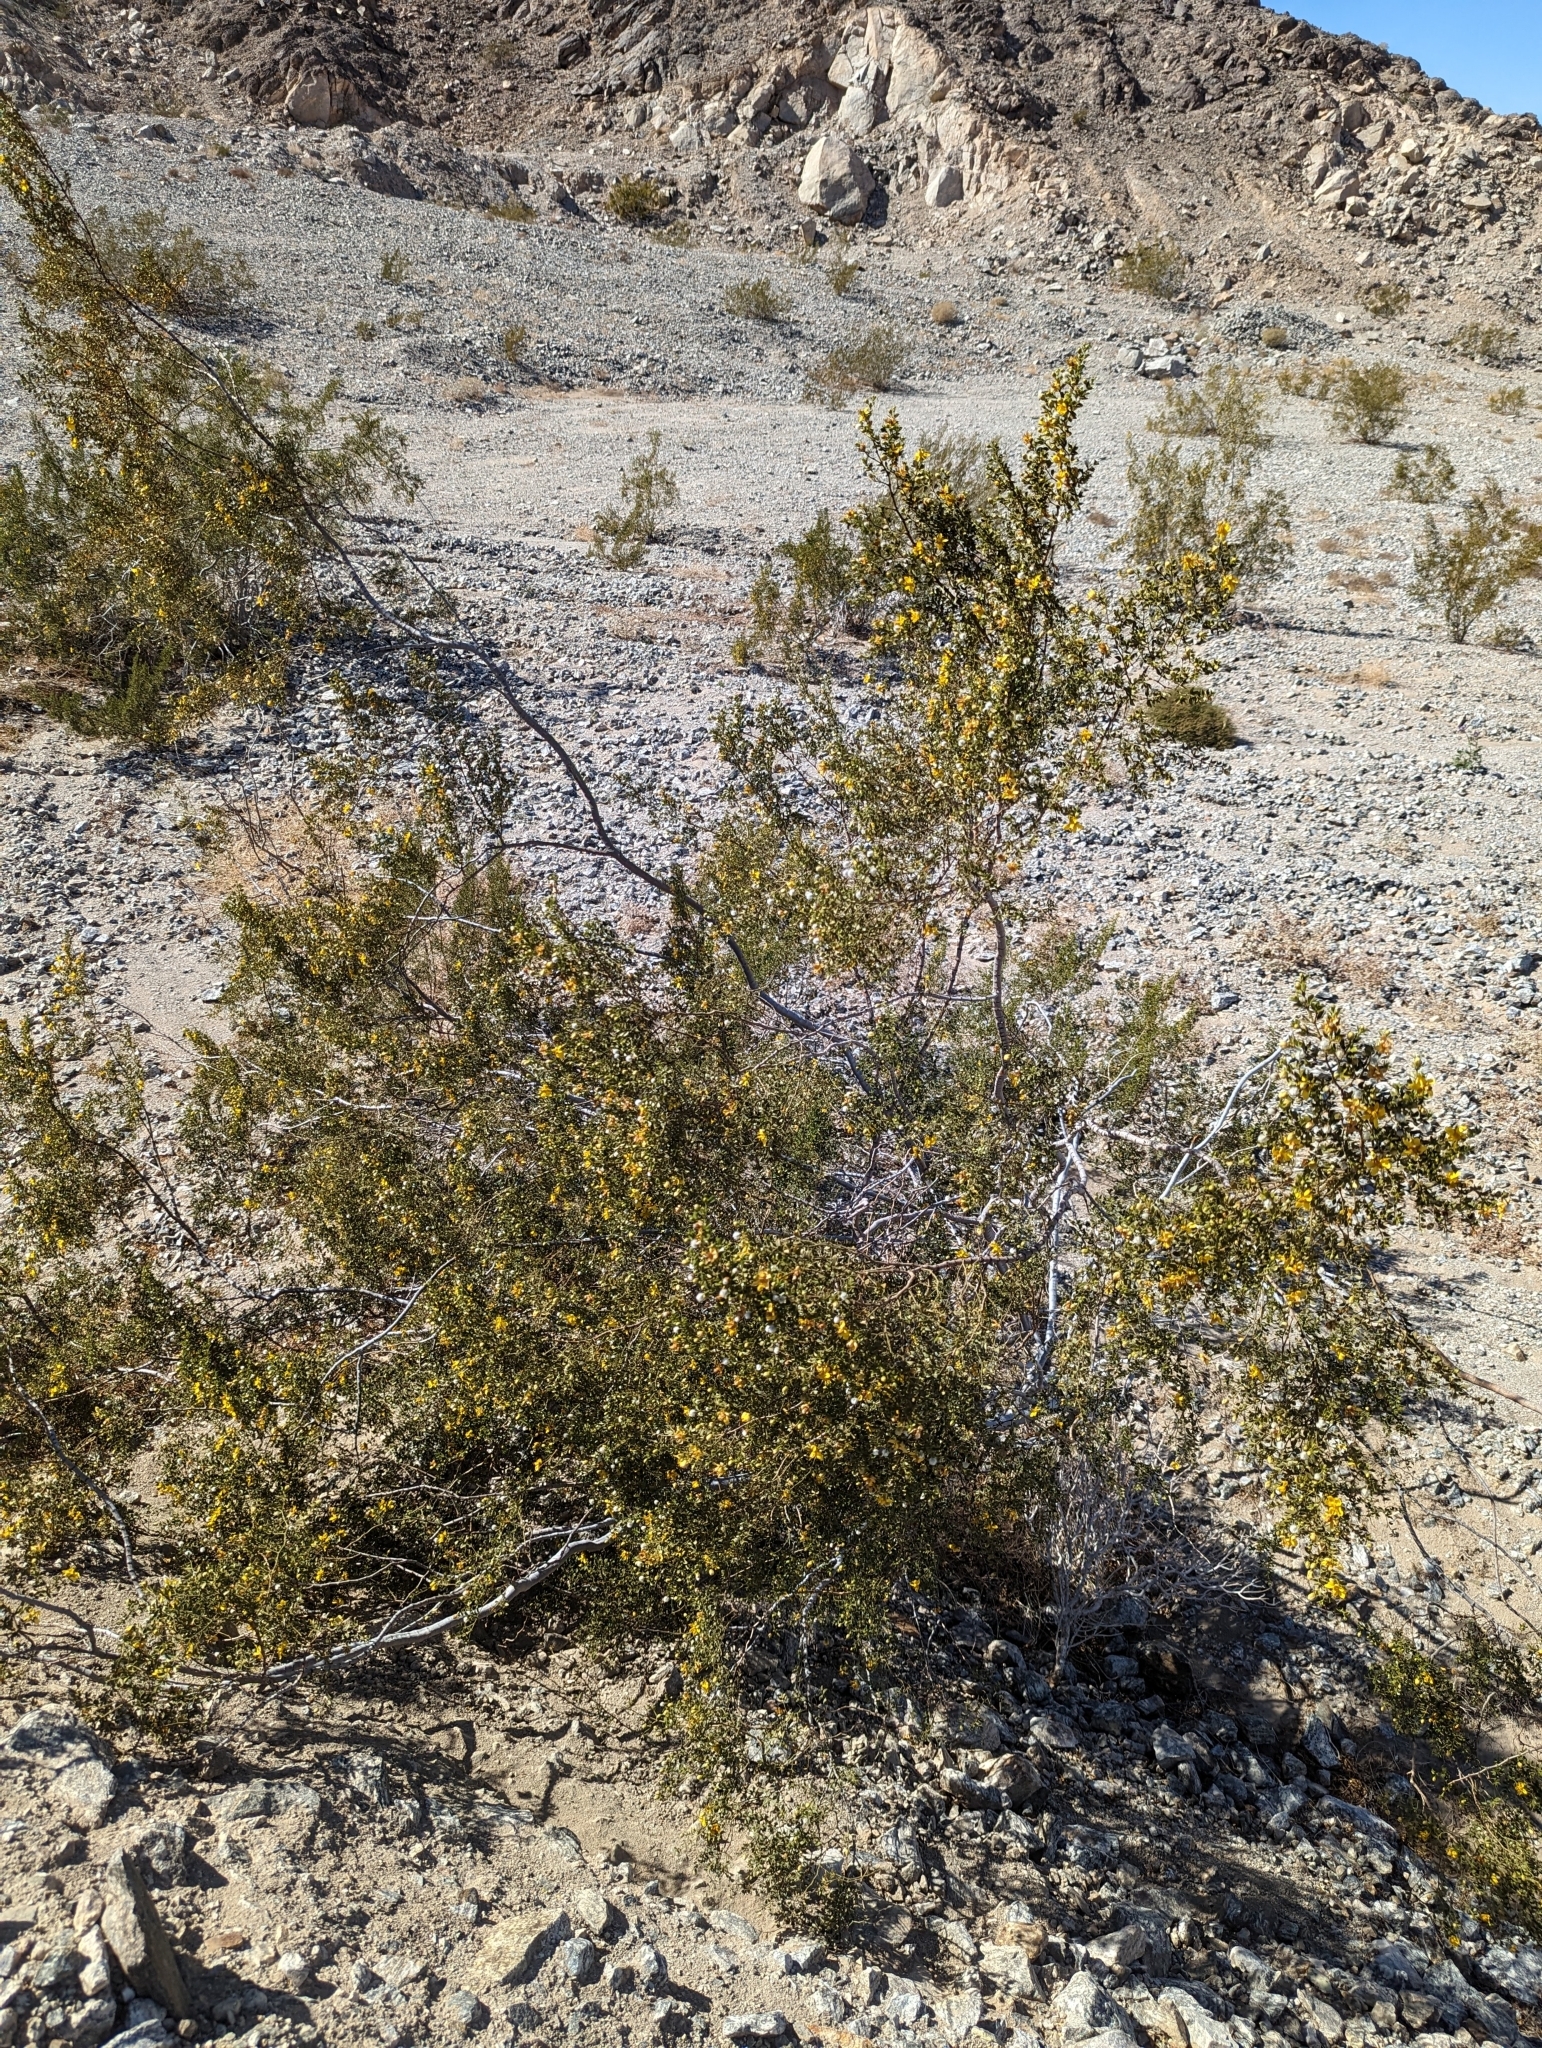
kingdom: Plantae
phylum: Tracheophyta
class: Magnoliopsida
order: Zygophyllales
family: Zygophyllaceae
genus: Larrea
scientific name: Larrea tridentata
